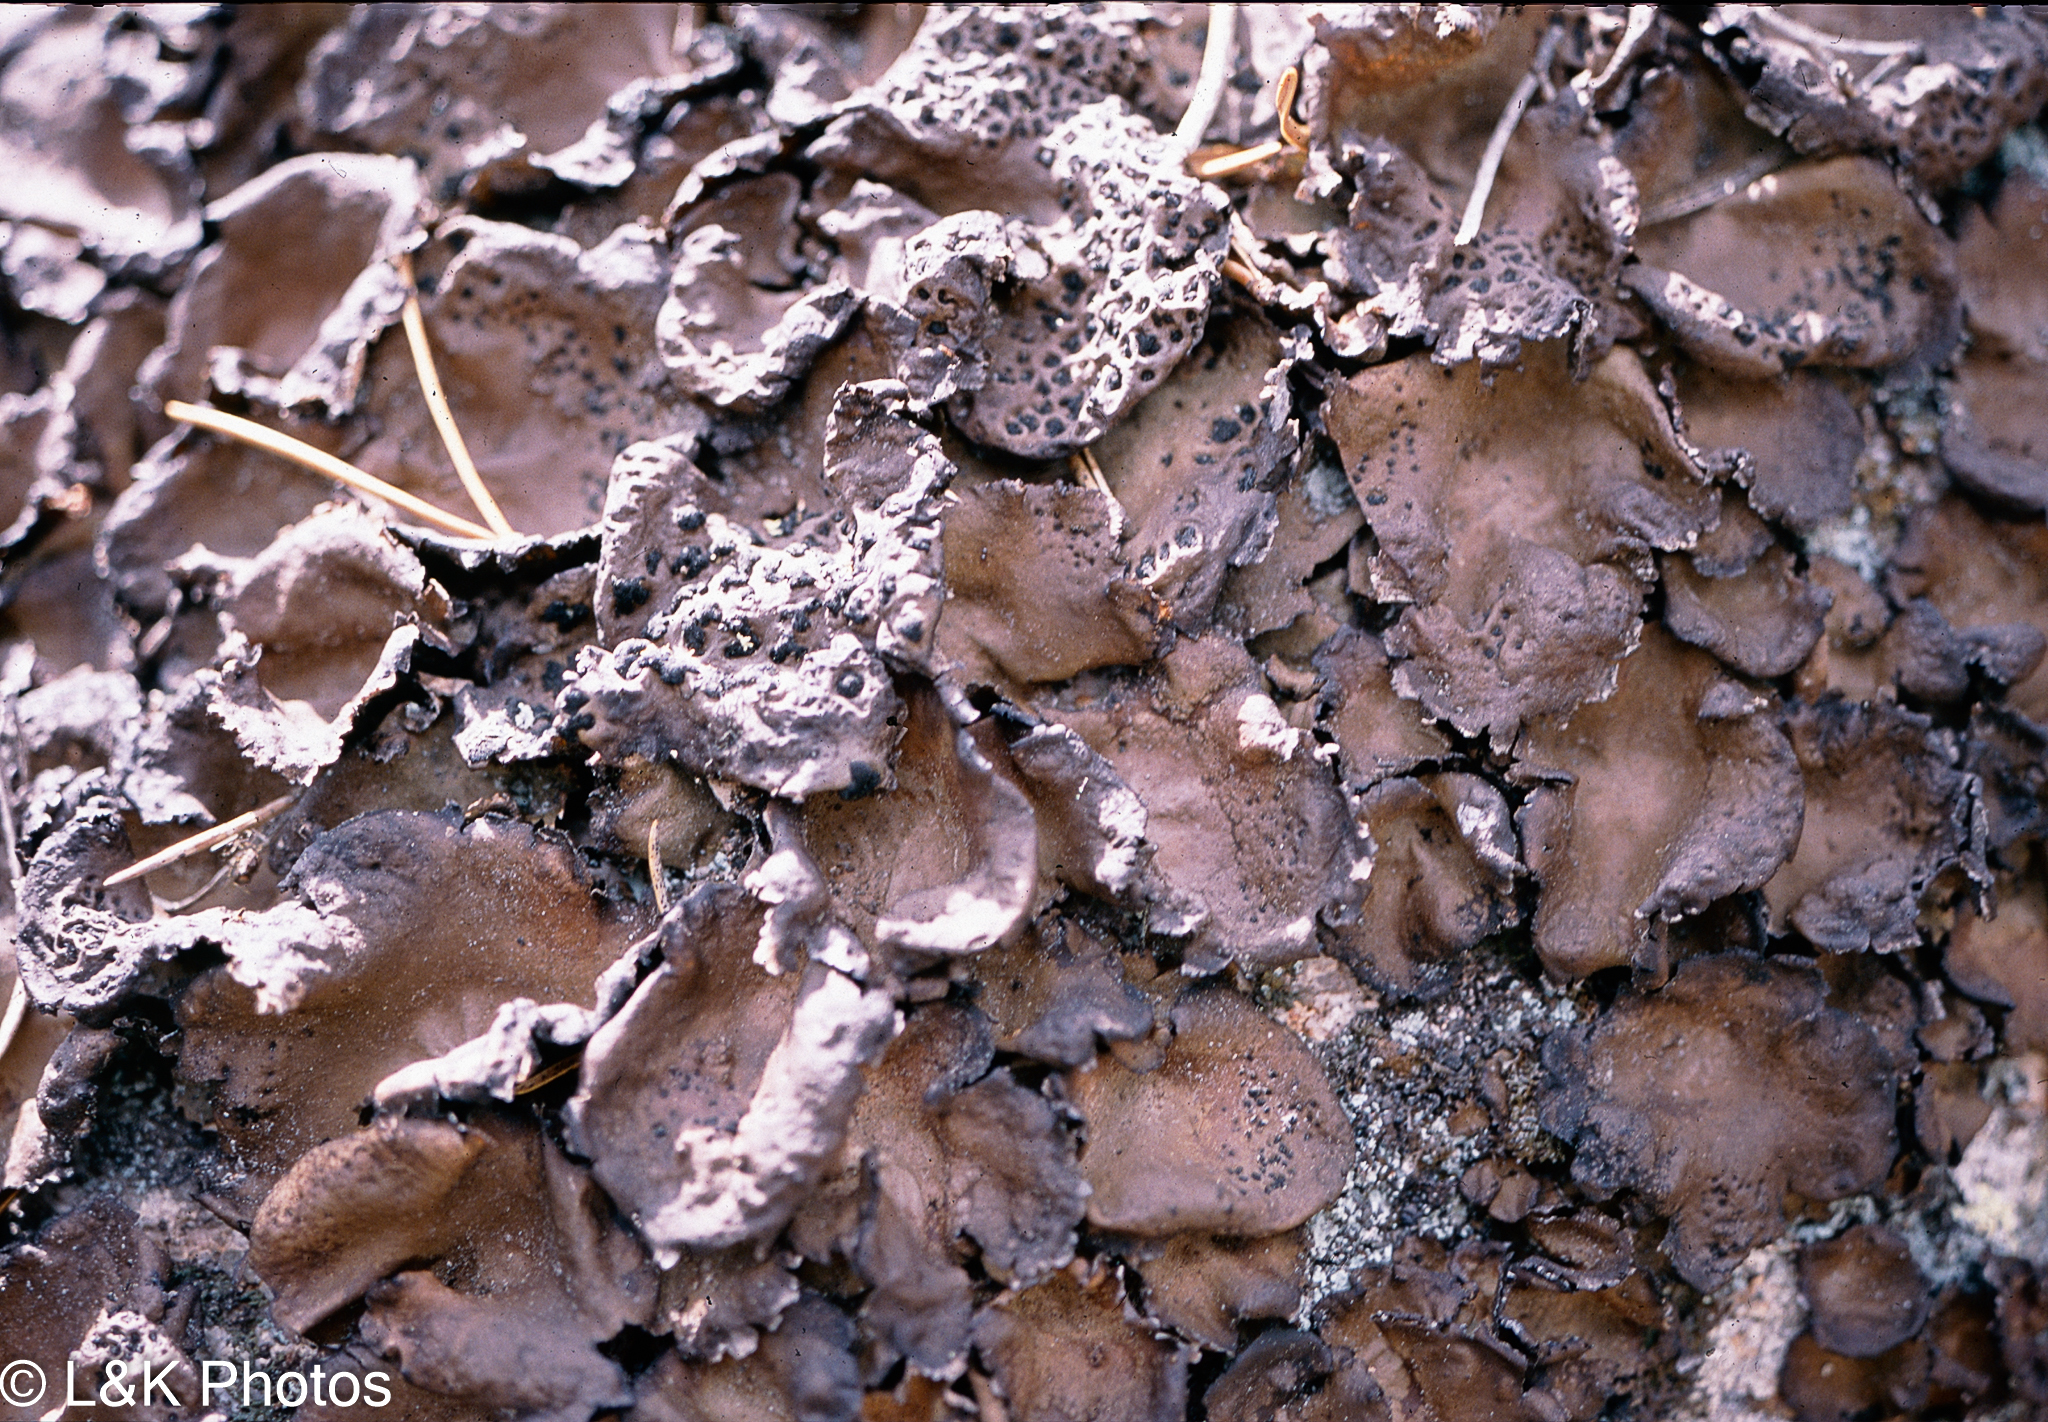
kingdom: Fungi
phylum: Ascomycota
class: Lecanoromycetes
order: Umbilicariales
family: Umbilicariaceae
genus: Umbilicaria
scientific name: Umbilicaria muhlenbergii
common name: Lesser rocktripe
